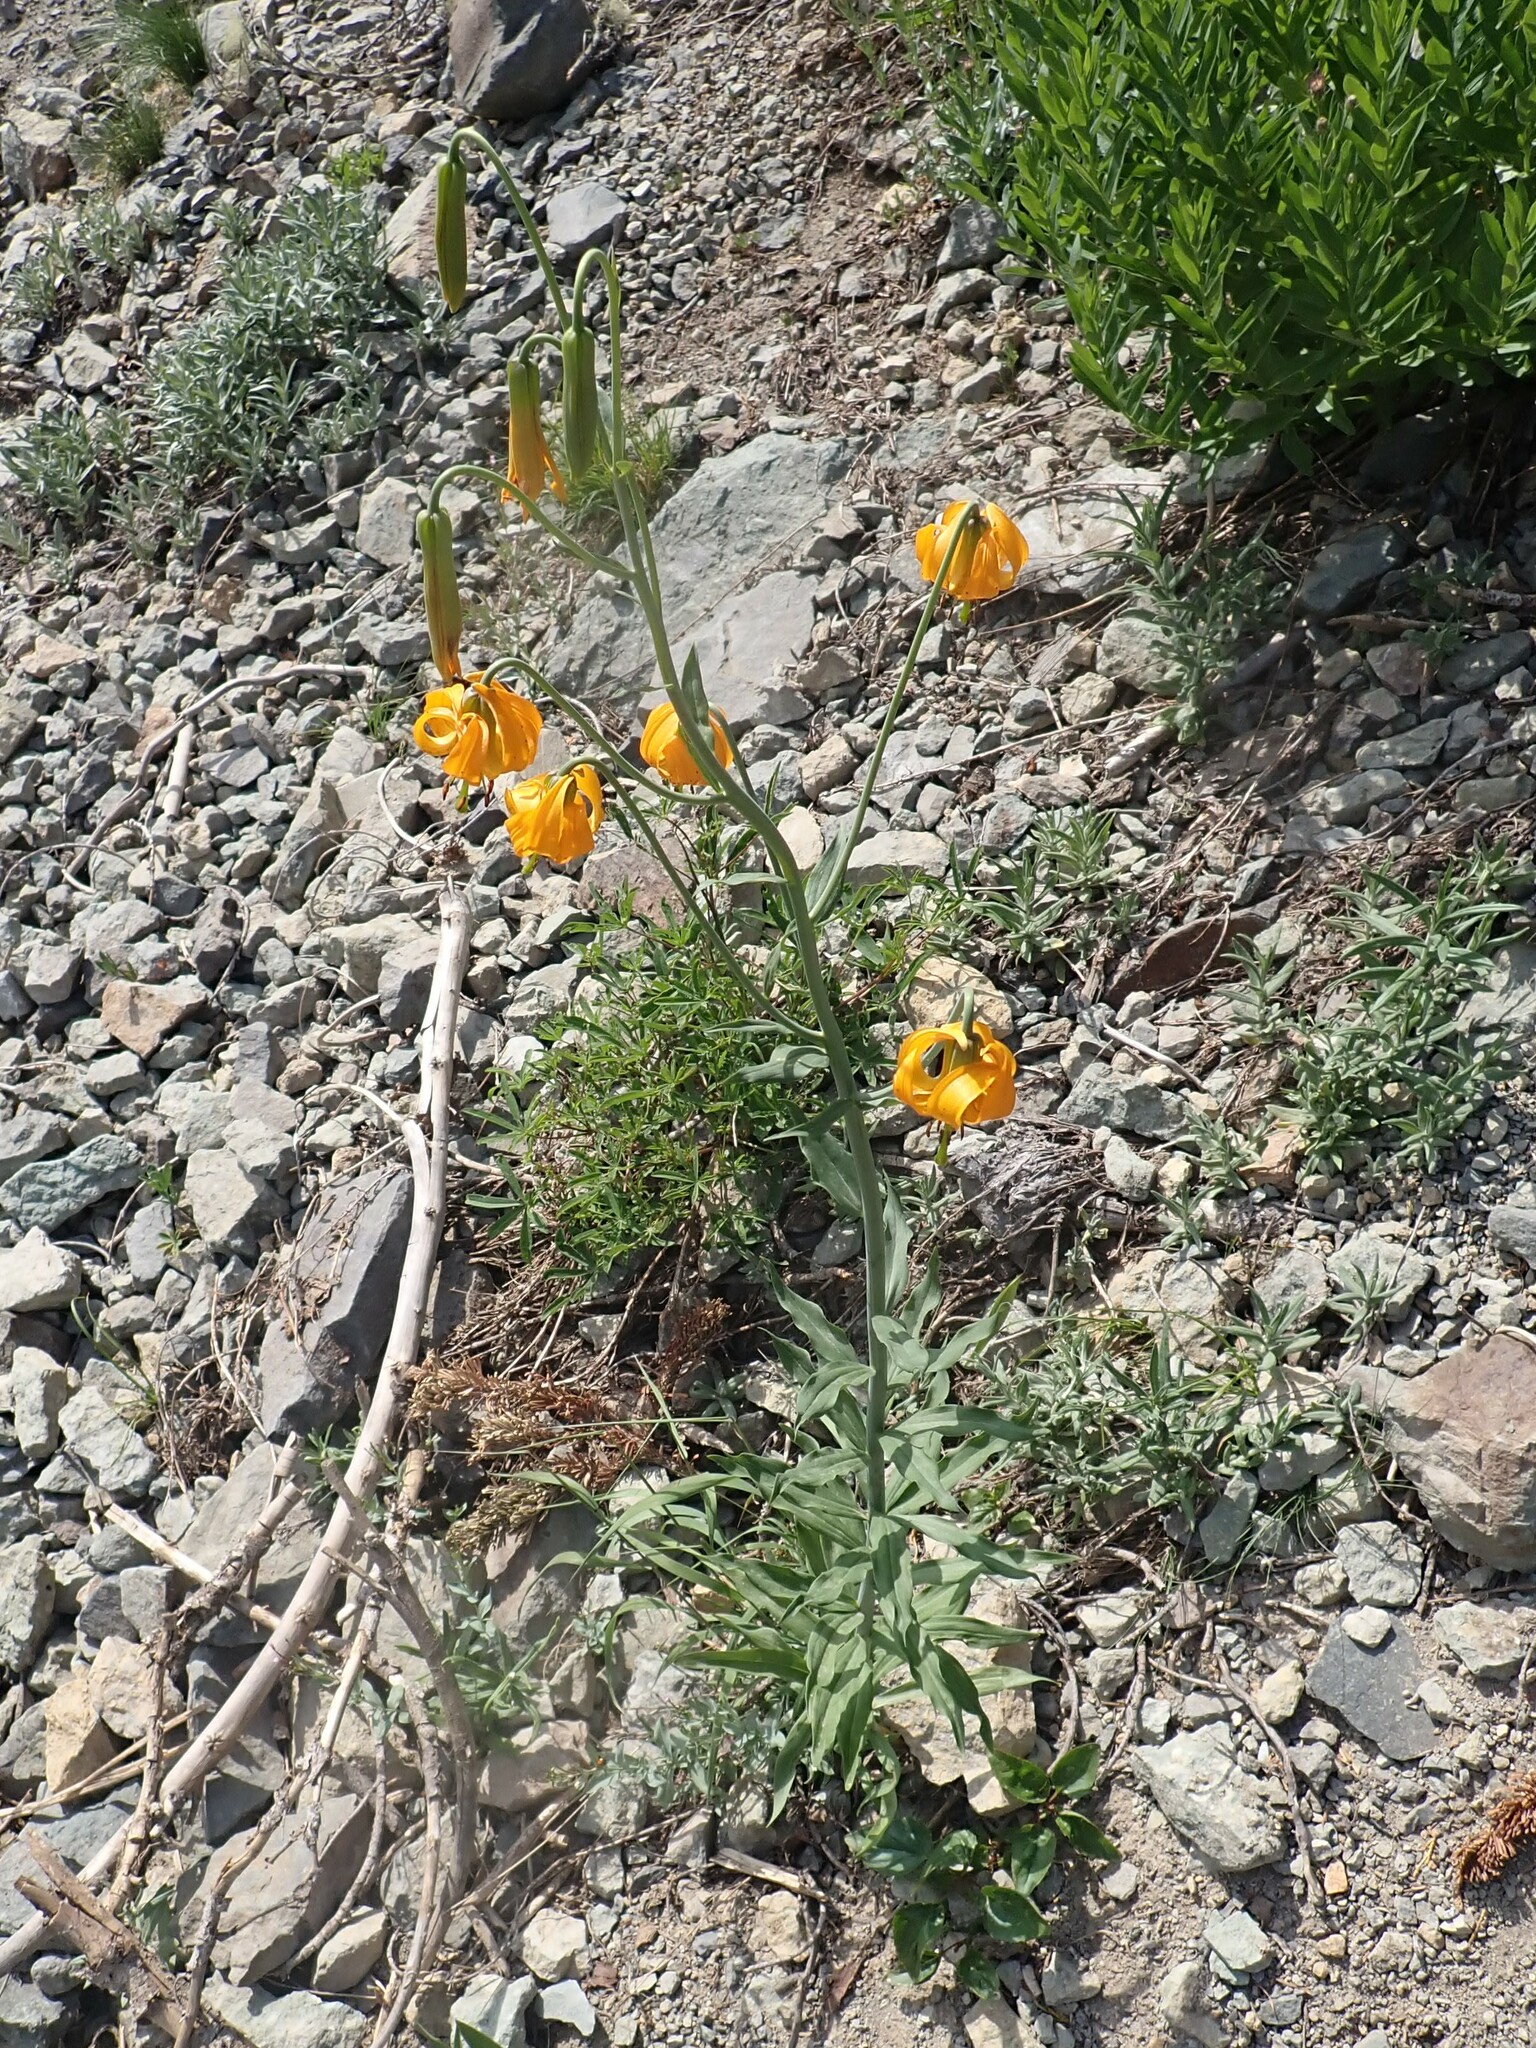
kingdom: Plantae
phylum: Tracheophyta
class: Liliopsida
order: Liliales
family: Liliaceae
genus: Lilium
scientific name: Lilium columbianum
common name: Columbia lily
